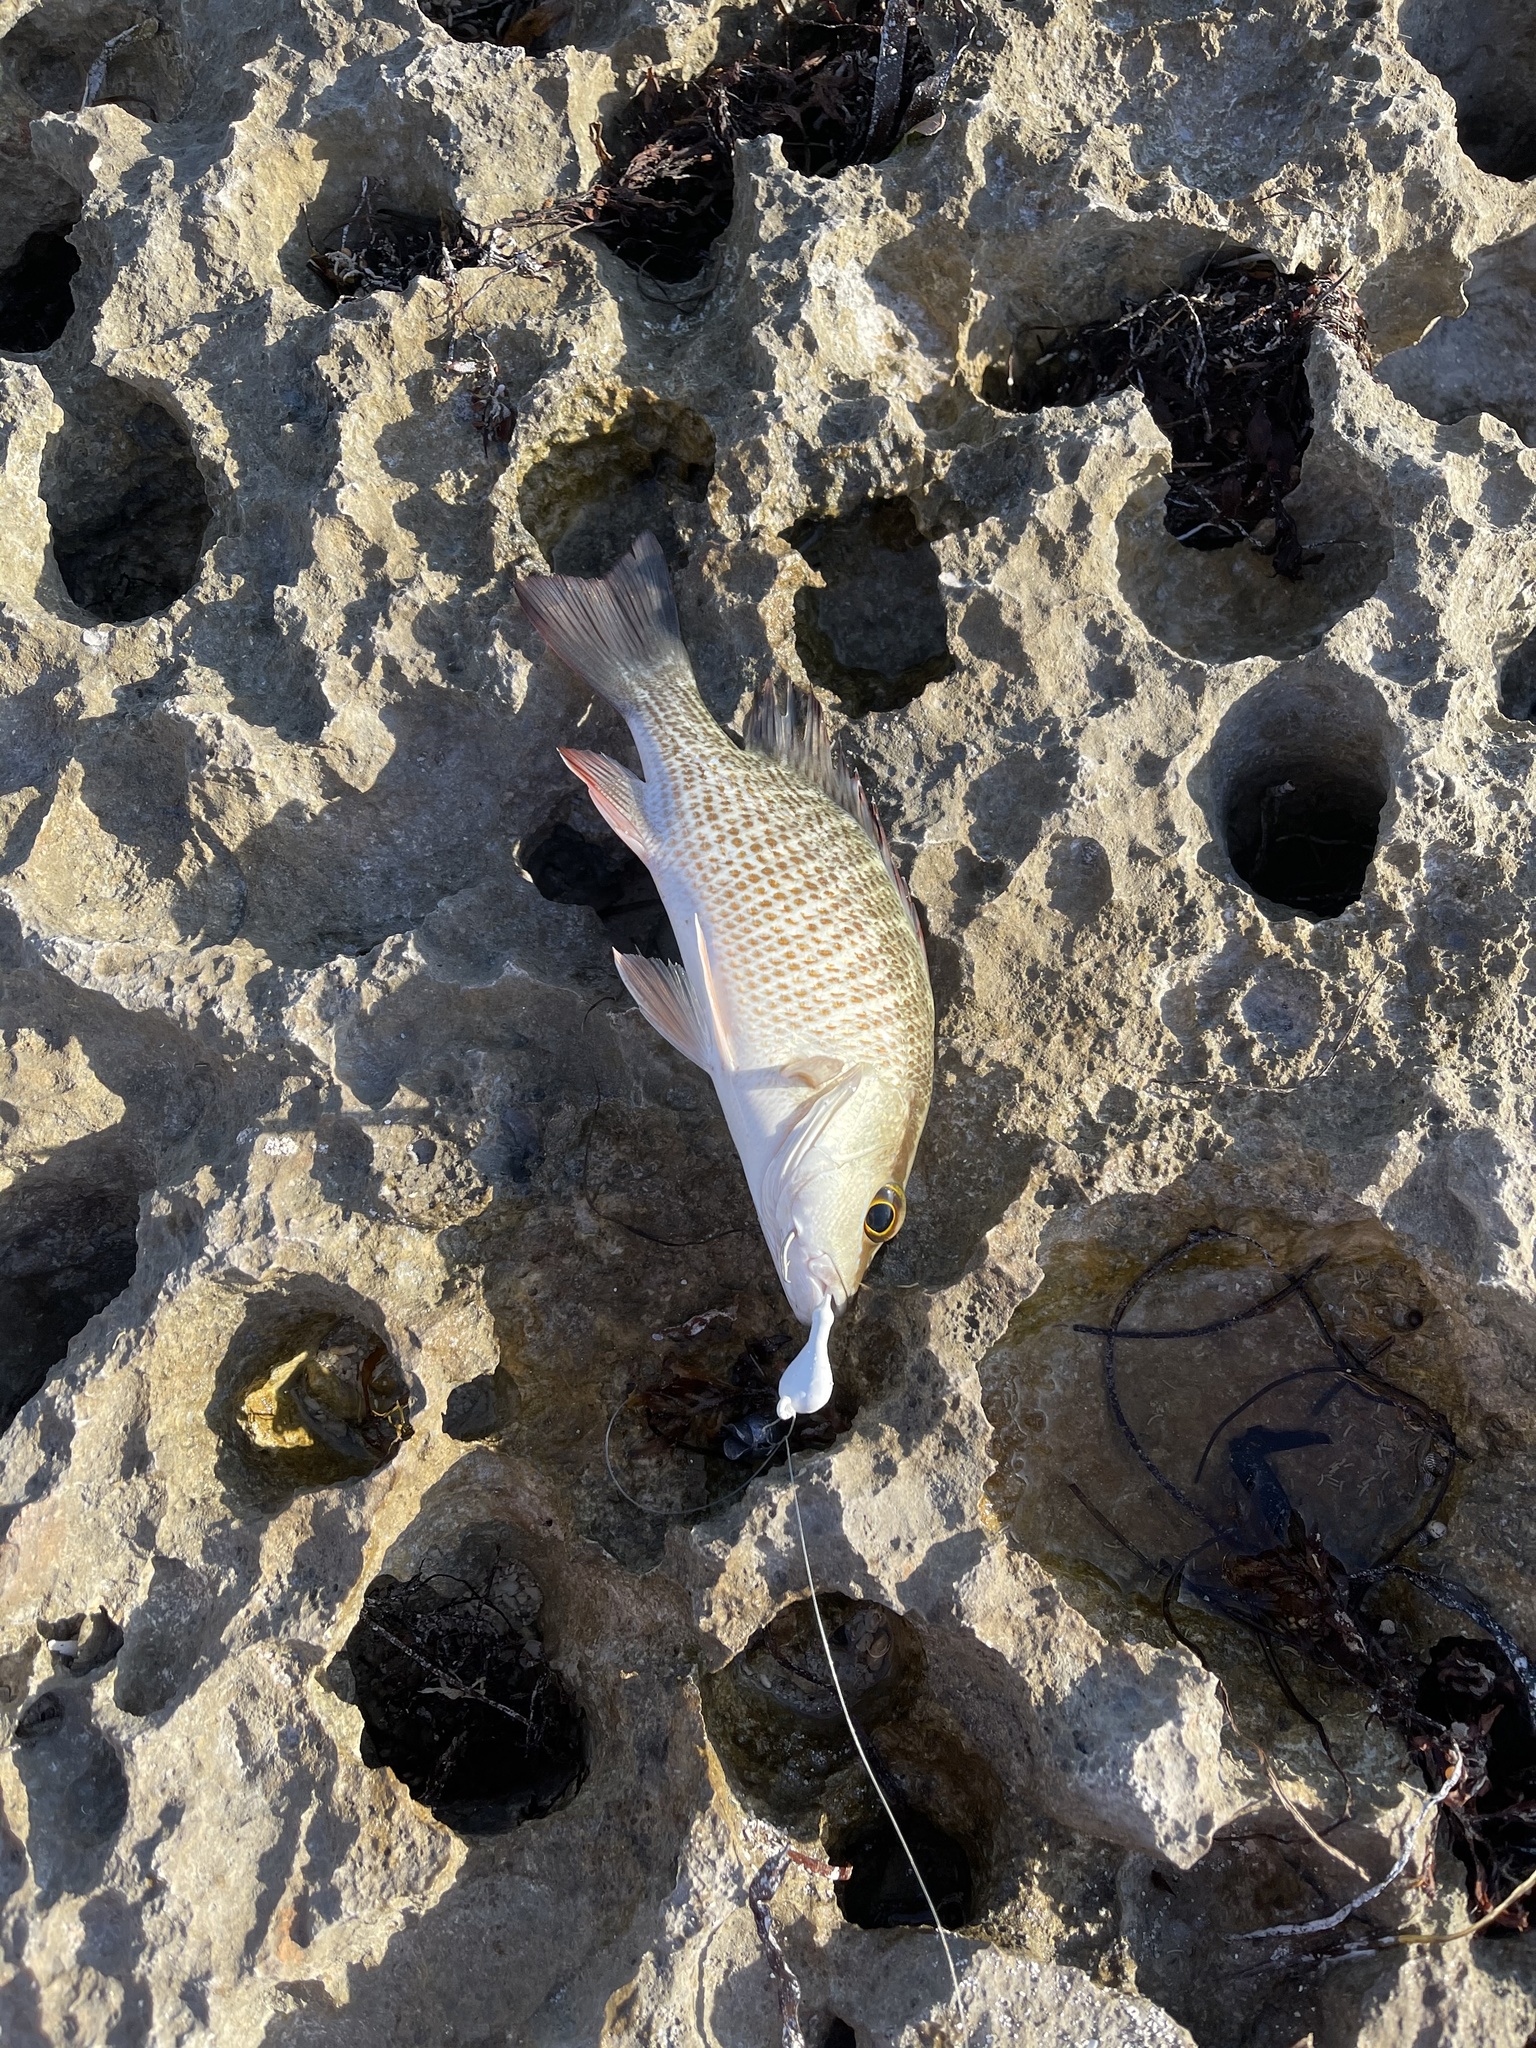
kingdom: Animalia
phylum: Chordata
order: Perciformes
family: Lutjanidae
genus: Lutjanus
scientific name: Lutjanus griseus
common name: Gray snapper
